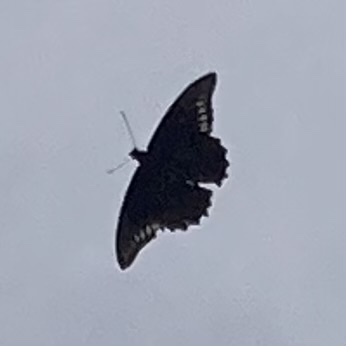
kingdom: Animalia
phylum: Arthropoda
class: Insecta
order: Lepidoptera
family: Papilionidae
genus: Battus
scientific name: Battus polydamas
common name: Polydamas swallowtail
